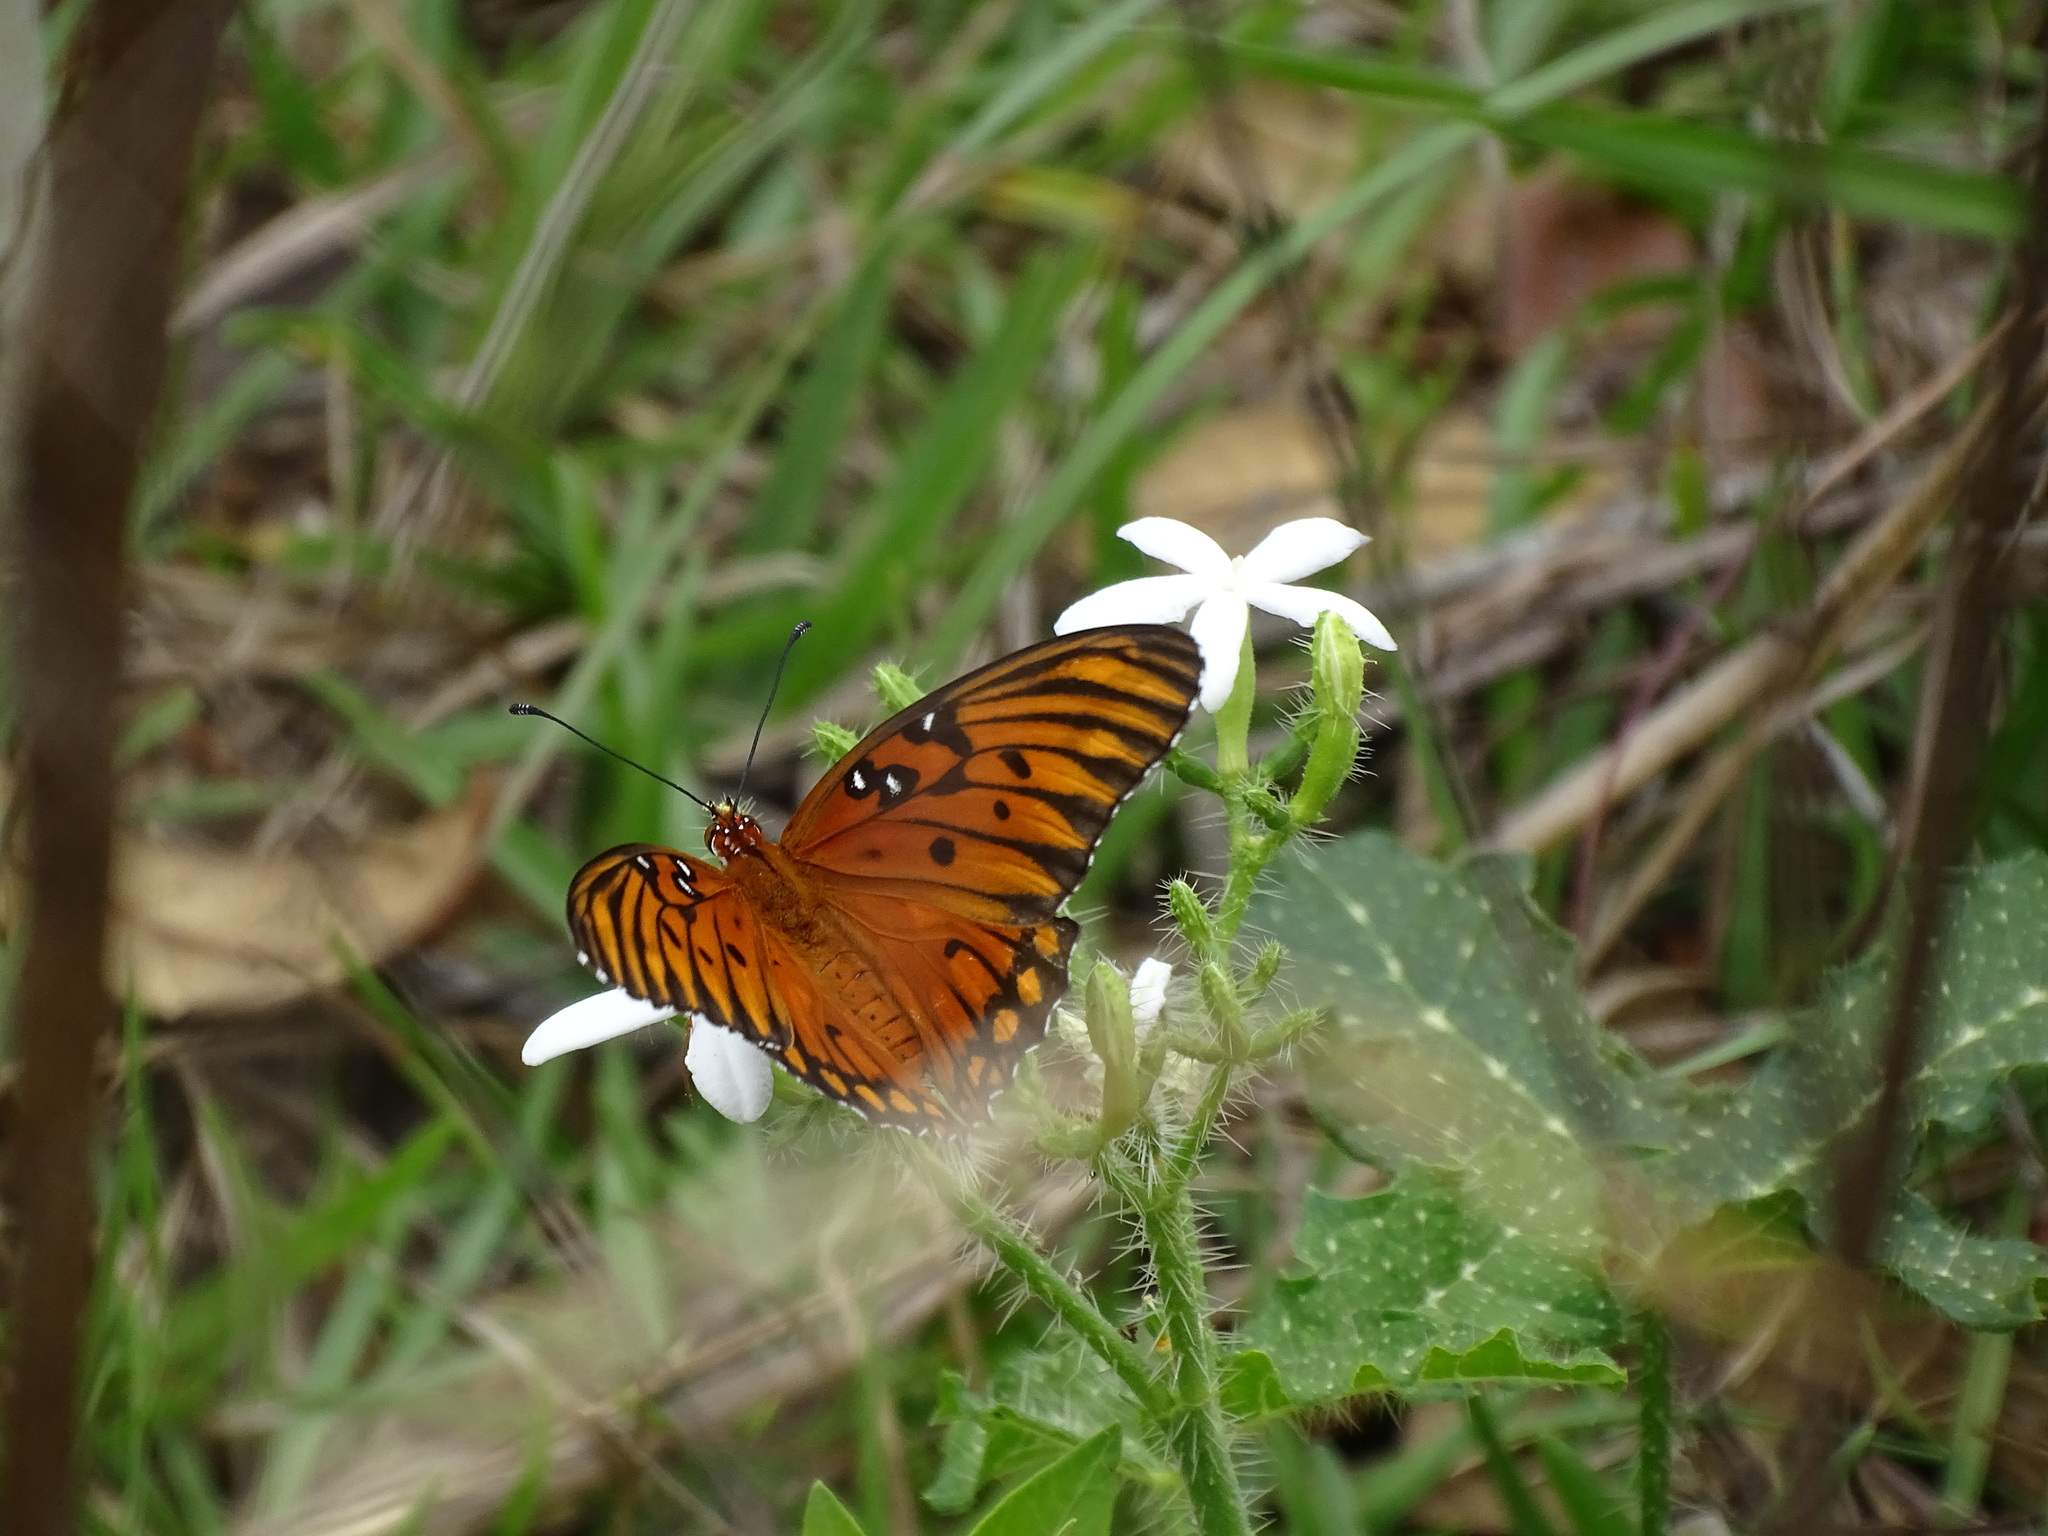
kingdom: Animalia
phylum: Arthropoda
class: Insecta
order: Lepidoptera
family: Nymphalidae
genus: Dione
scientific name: Dione vanillae
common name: Gulf fritillary
